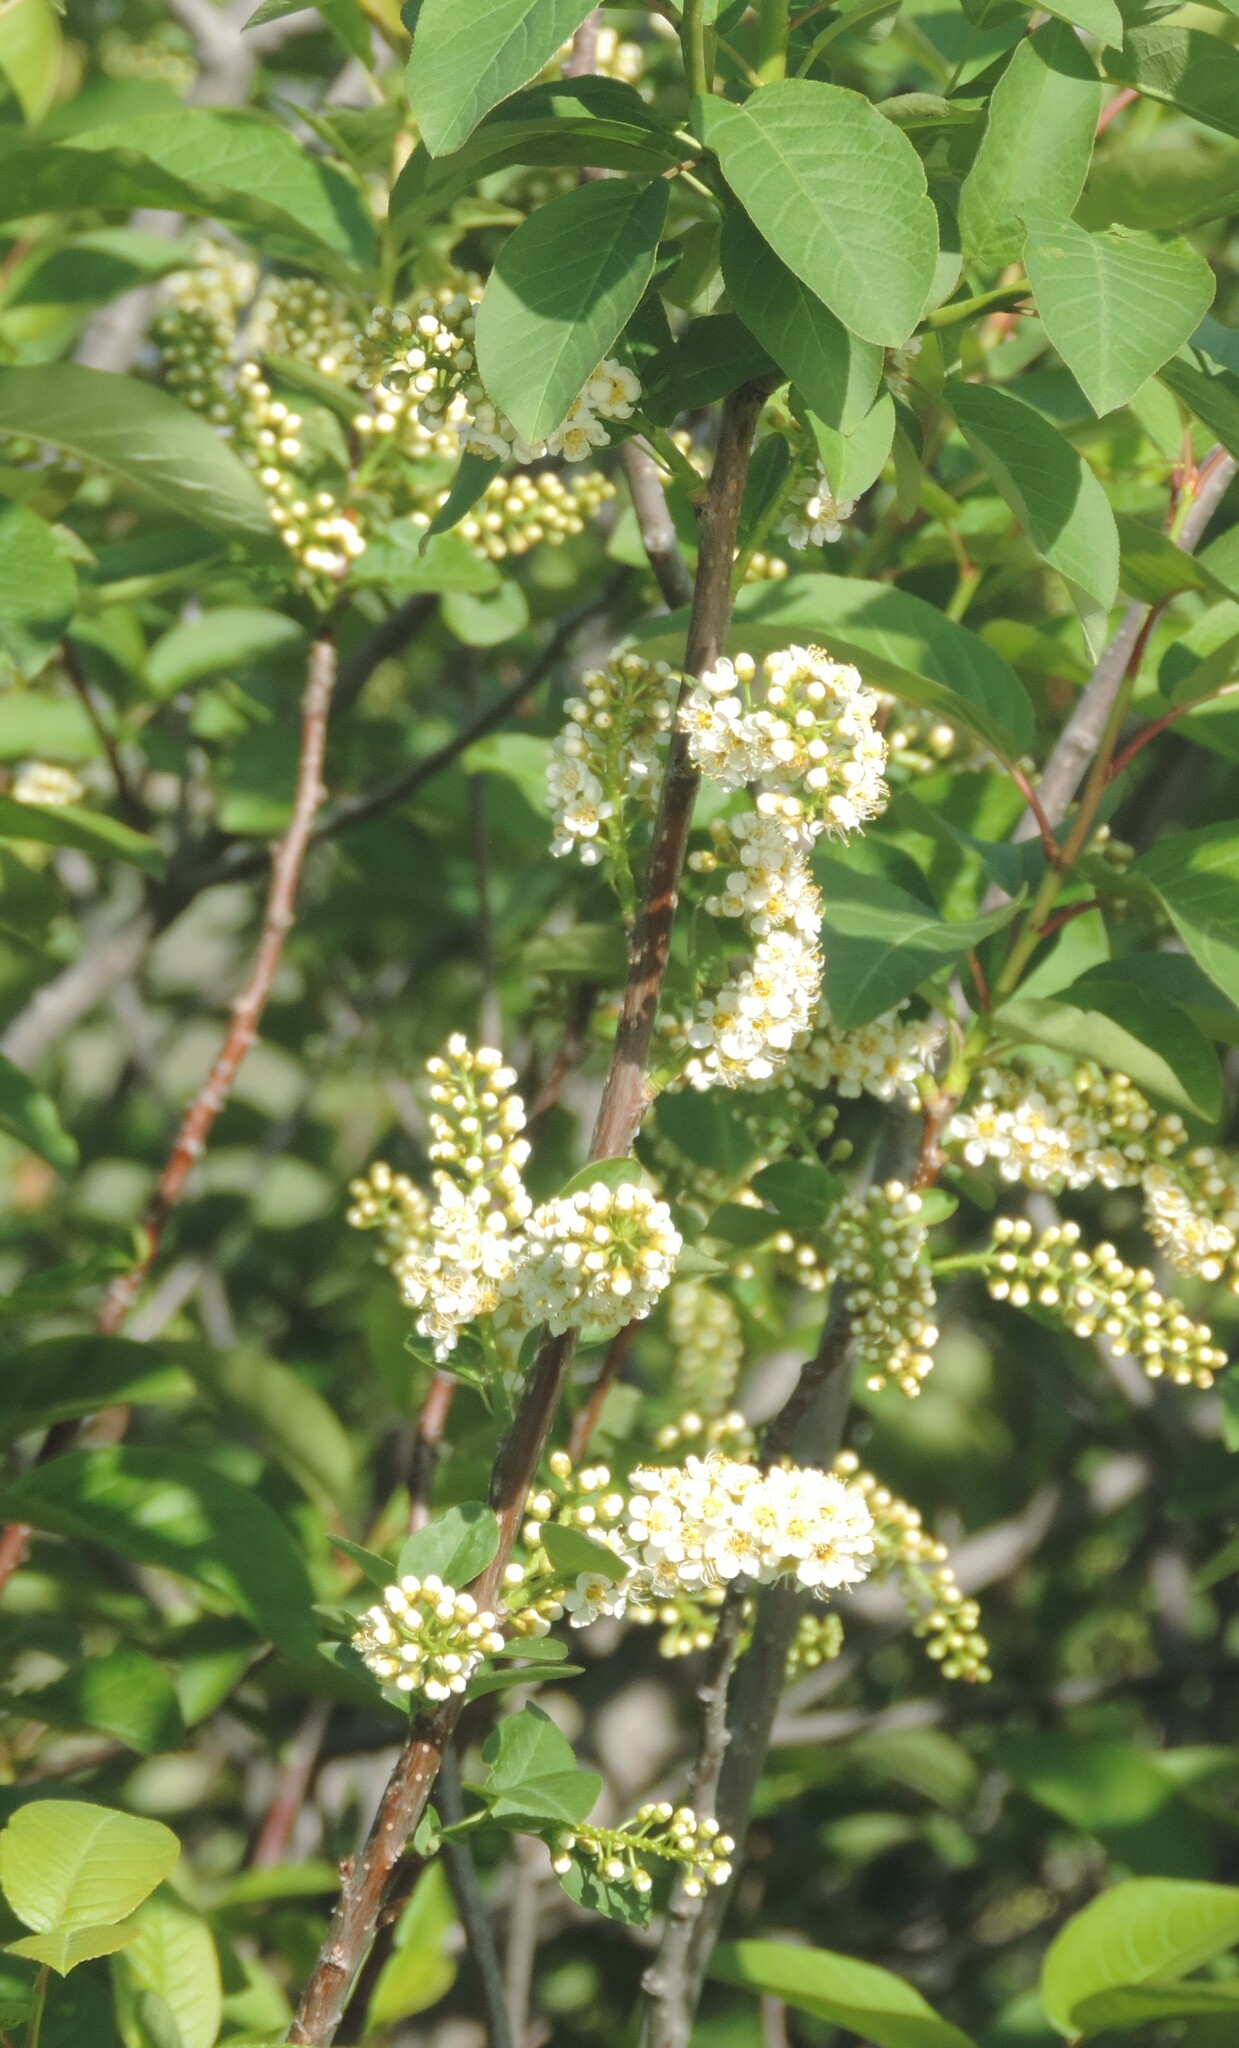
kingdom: Plantae
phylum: Tracheophyta
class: Magnoliopsida
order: Rosales
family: Rosaceae
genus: Prunus
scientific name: Prunus virginiana
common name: Chokecherry
